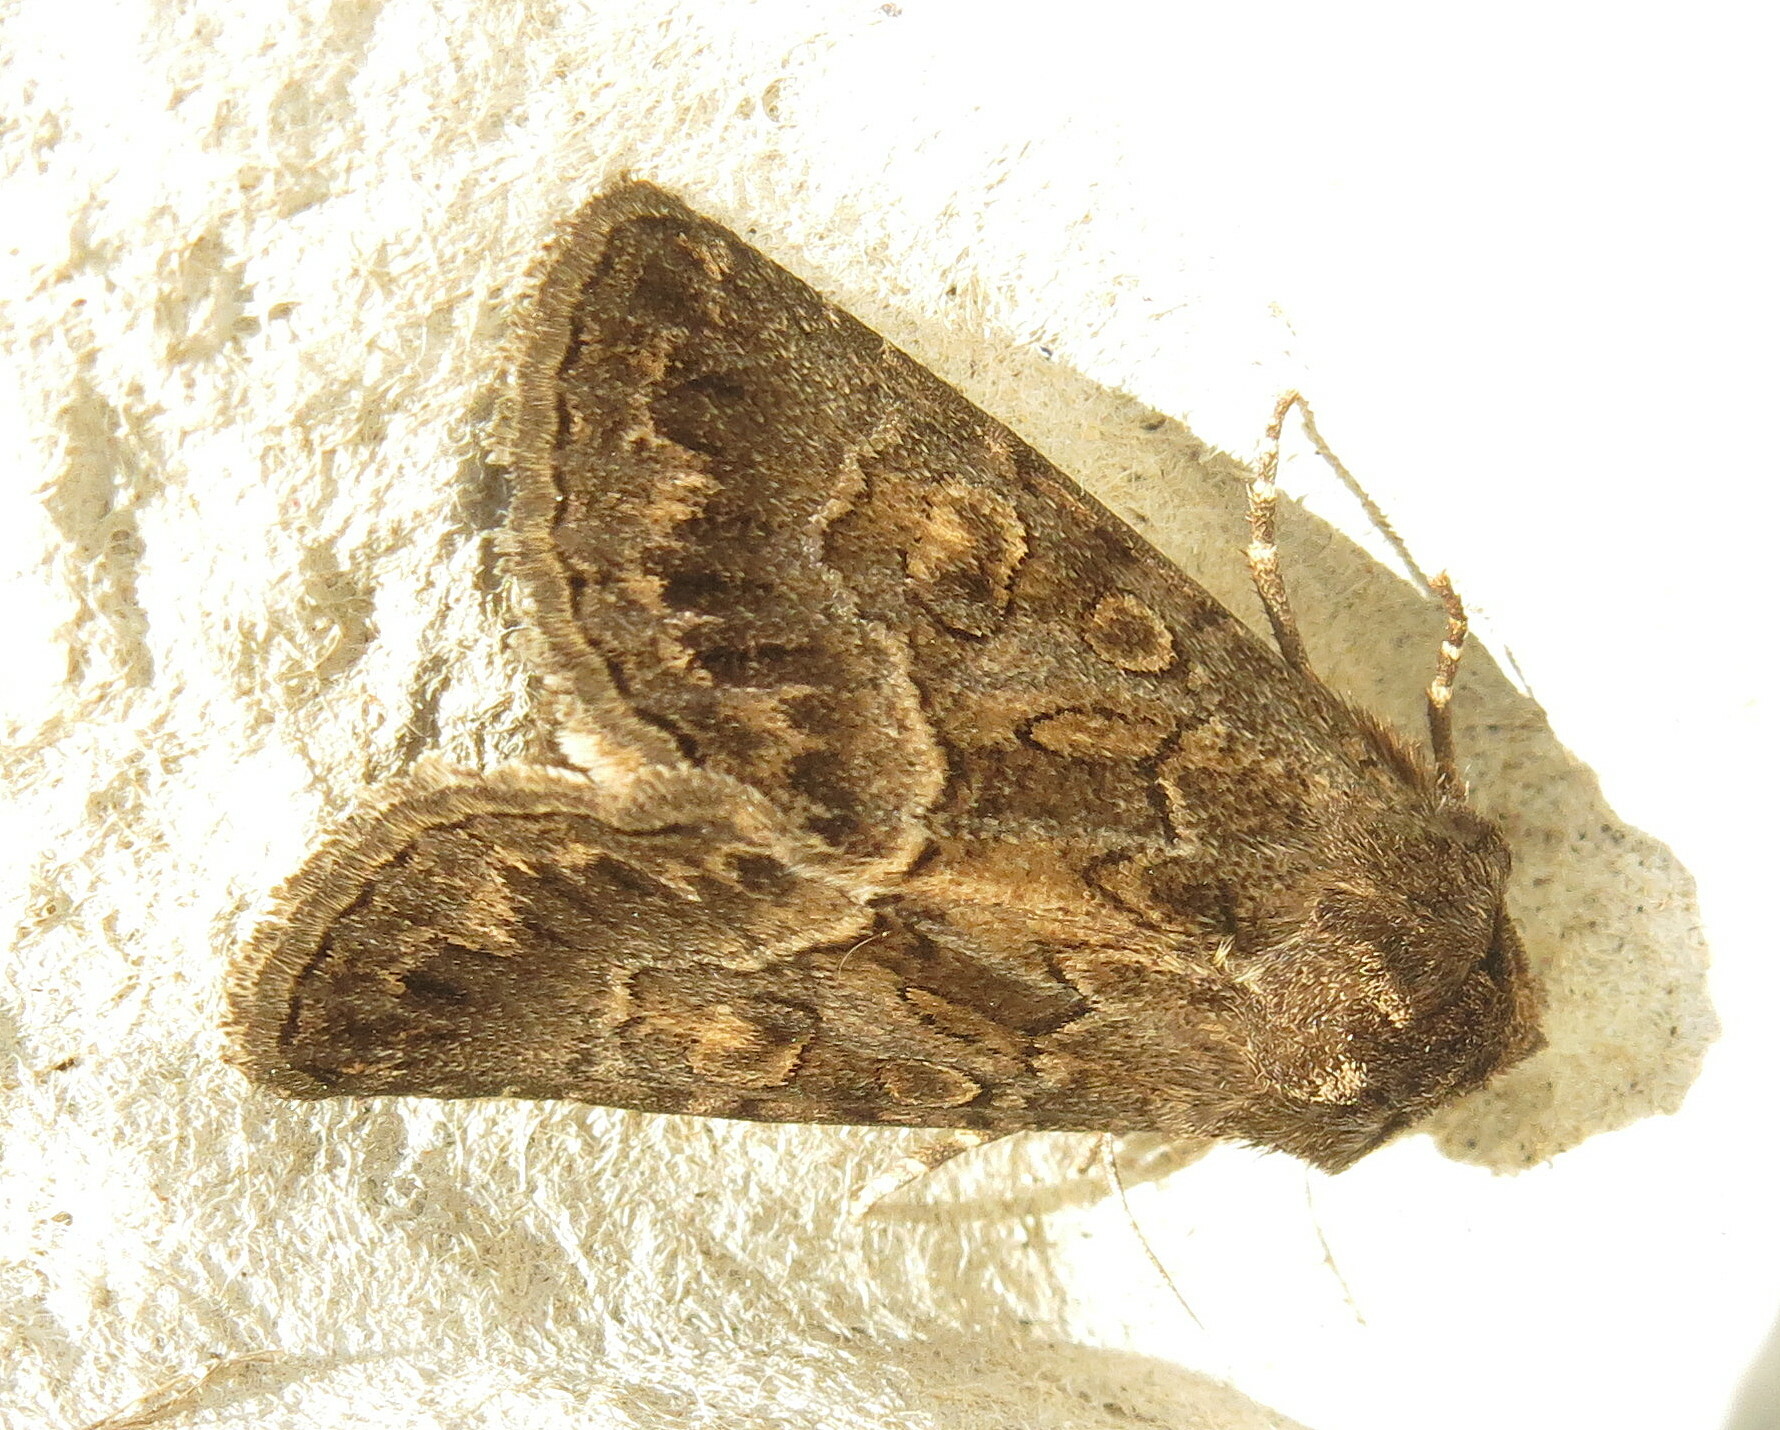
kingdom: Animalia
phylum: Arthropoda
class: Insecta
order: Lepidoptera
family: Noctuidae
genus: Thalpophila
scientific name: Thalpophila matura
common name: Straw underwing
